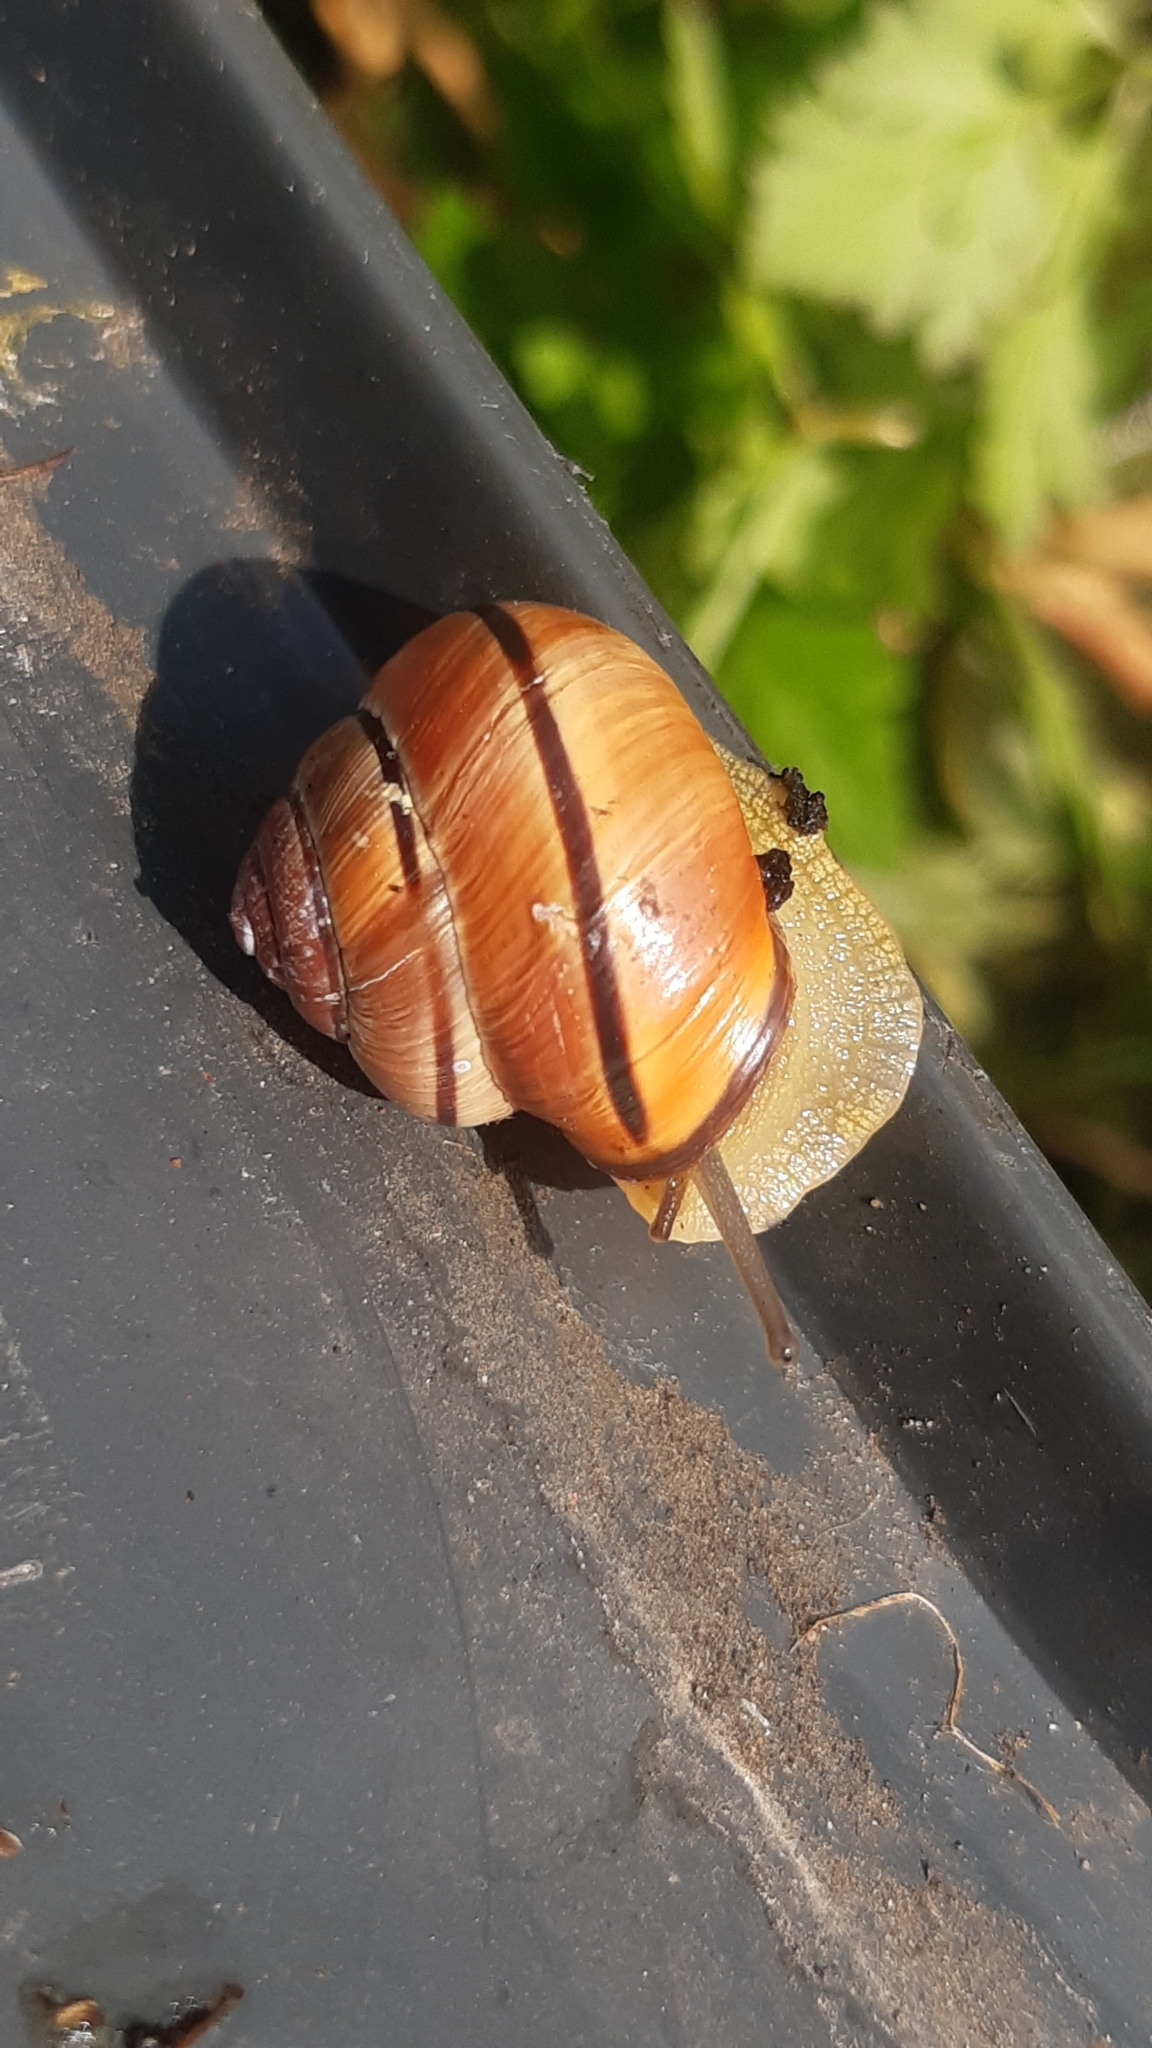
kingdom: Animalia
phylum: Mollusca
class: Gastropoda
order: Stylommatophora
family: Helicidae
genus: Cepaea
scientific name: Cepaea nemoralis
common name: Grovesnail
